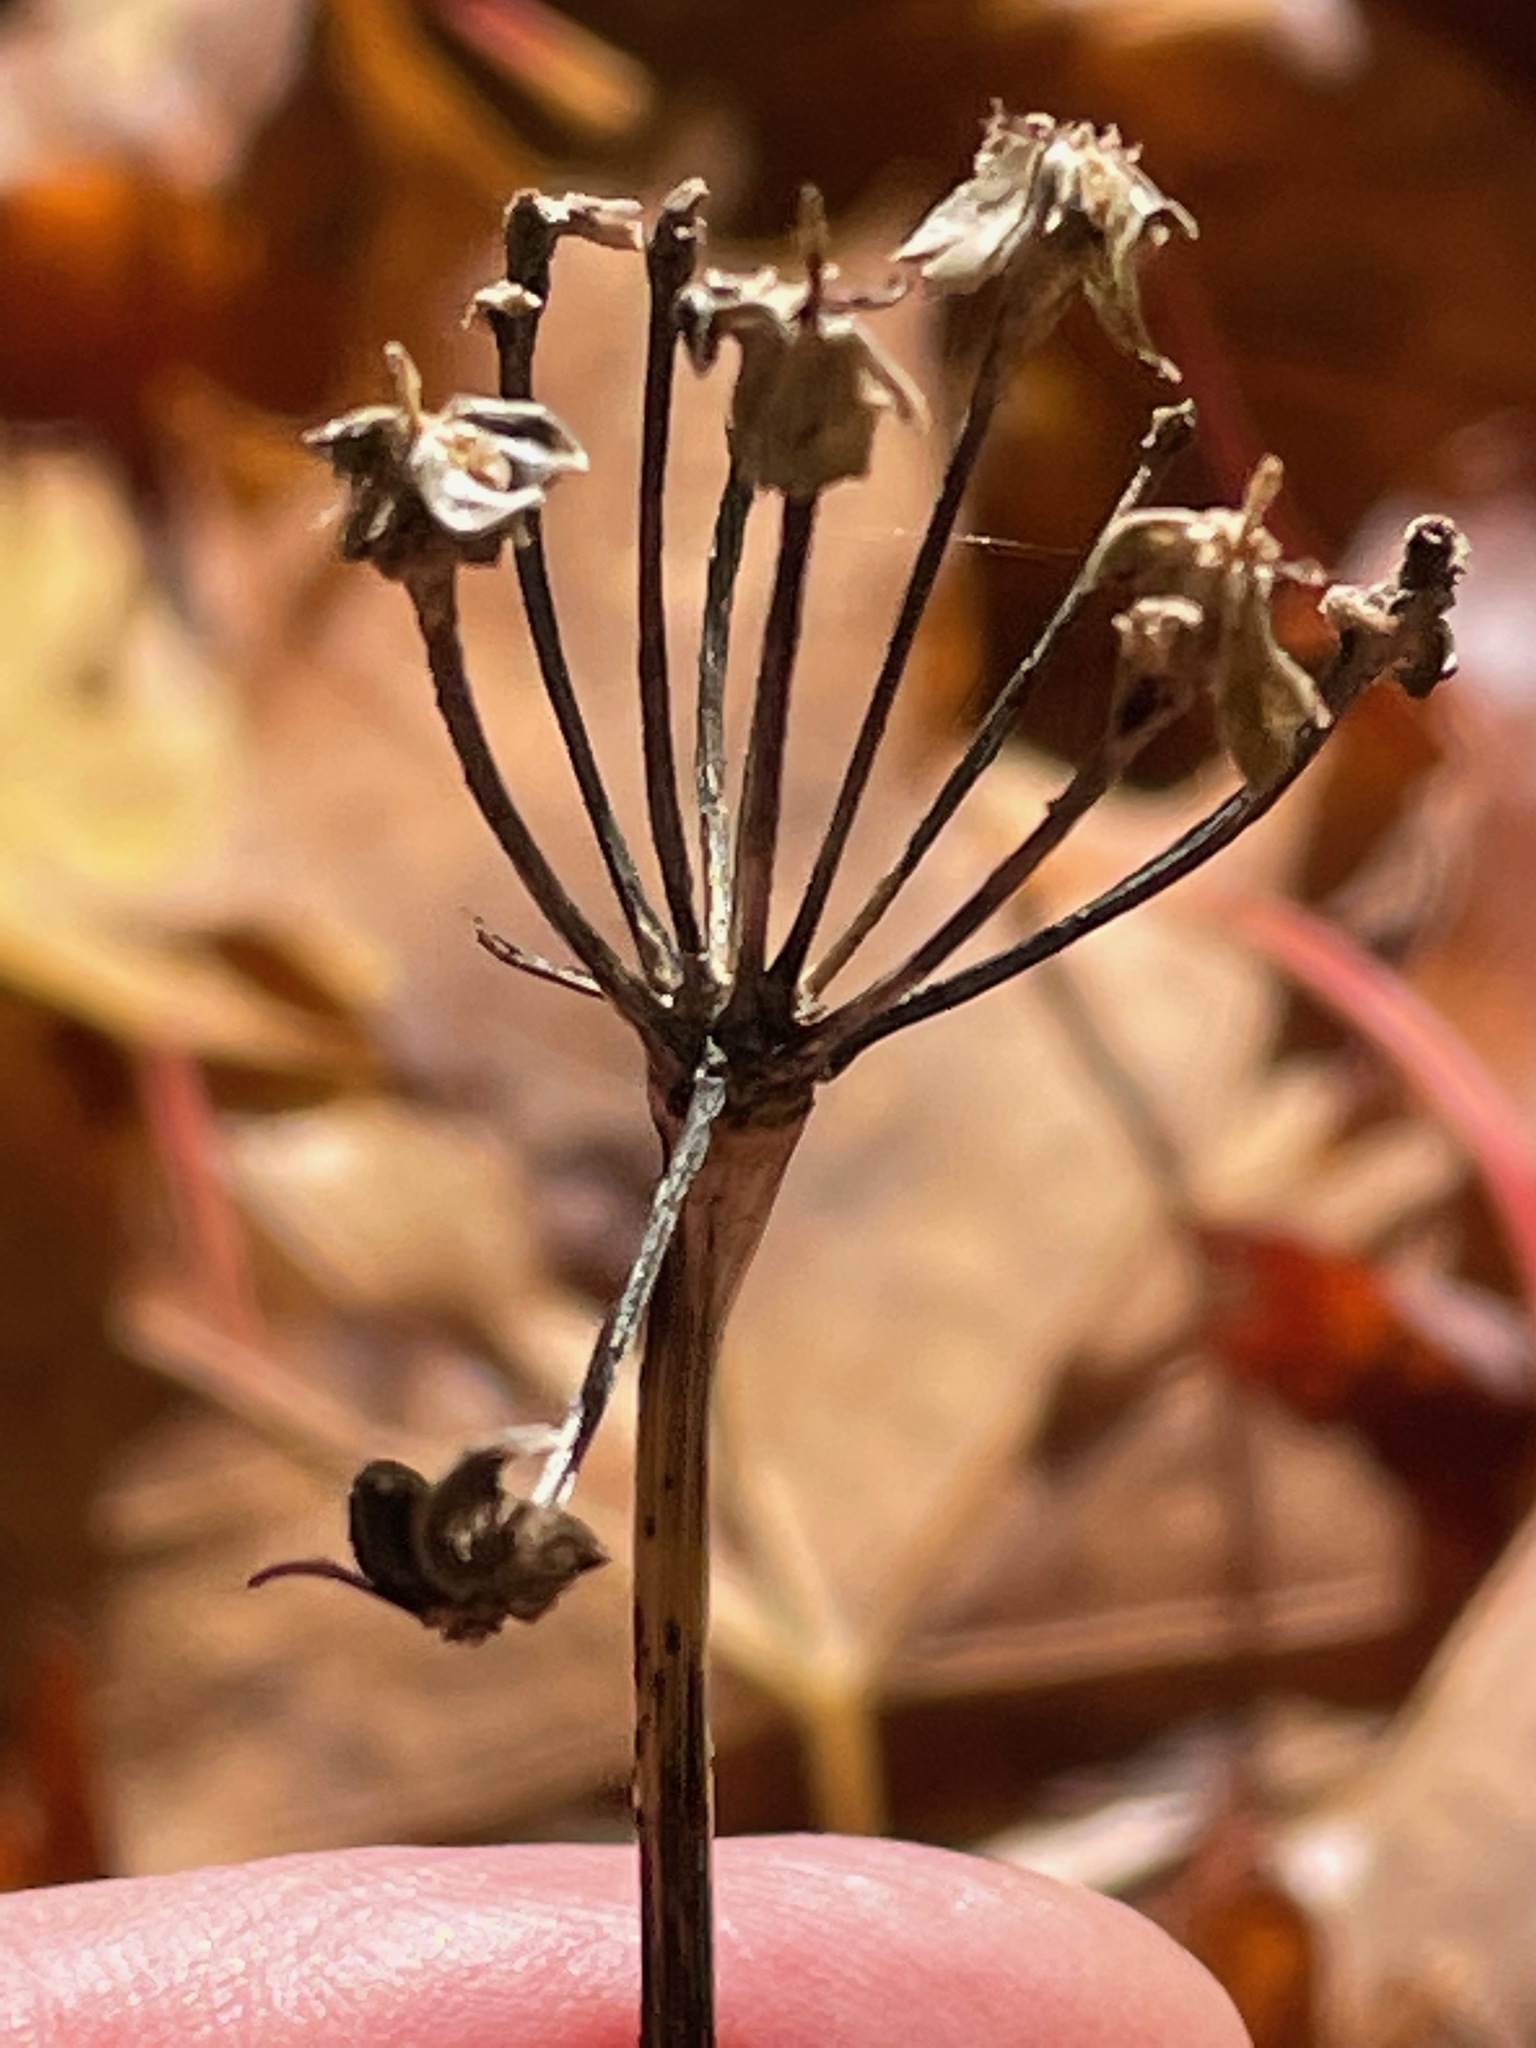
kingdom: Plantae
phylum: Tracheophyta
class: Liliopsida
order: Asparagales
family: Amaryllidaceae
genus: Allium
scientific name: Allium tricoccum
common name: Ramp
